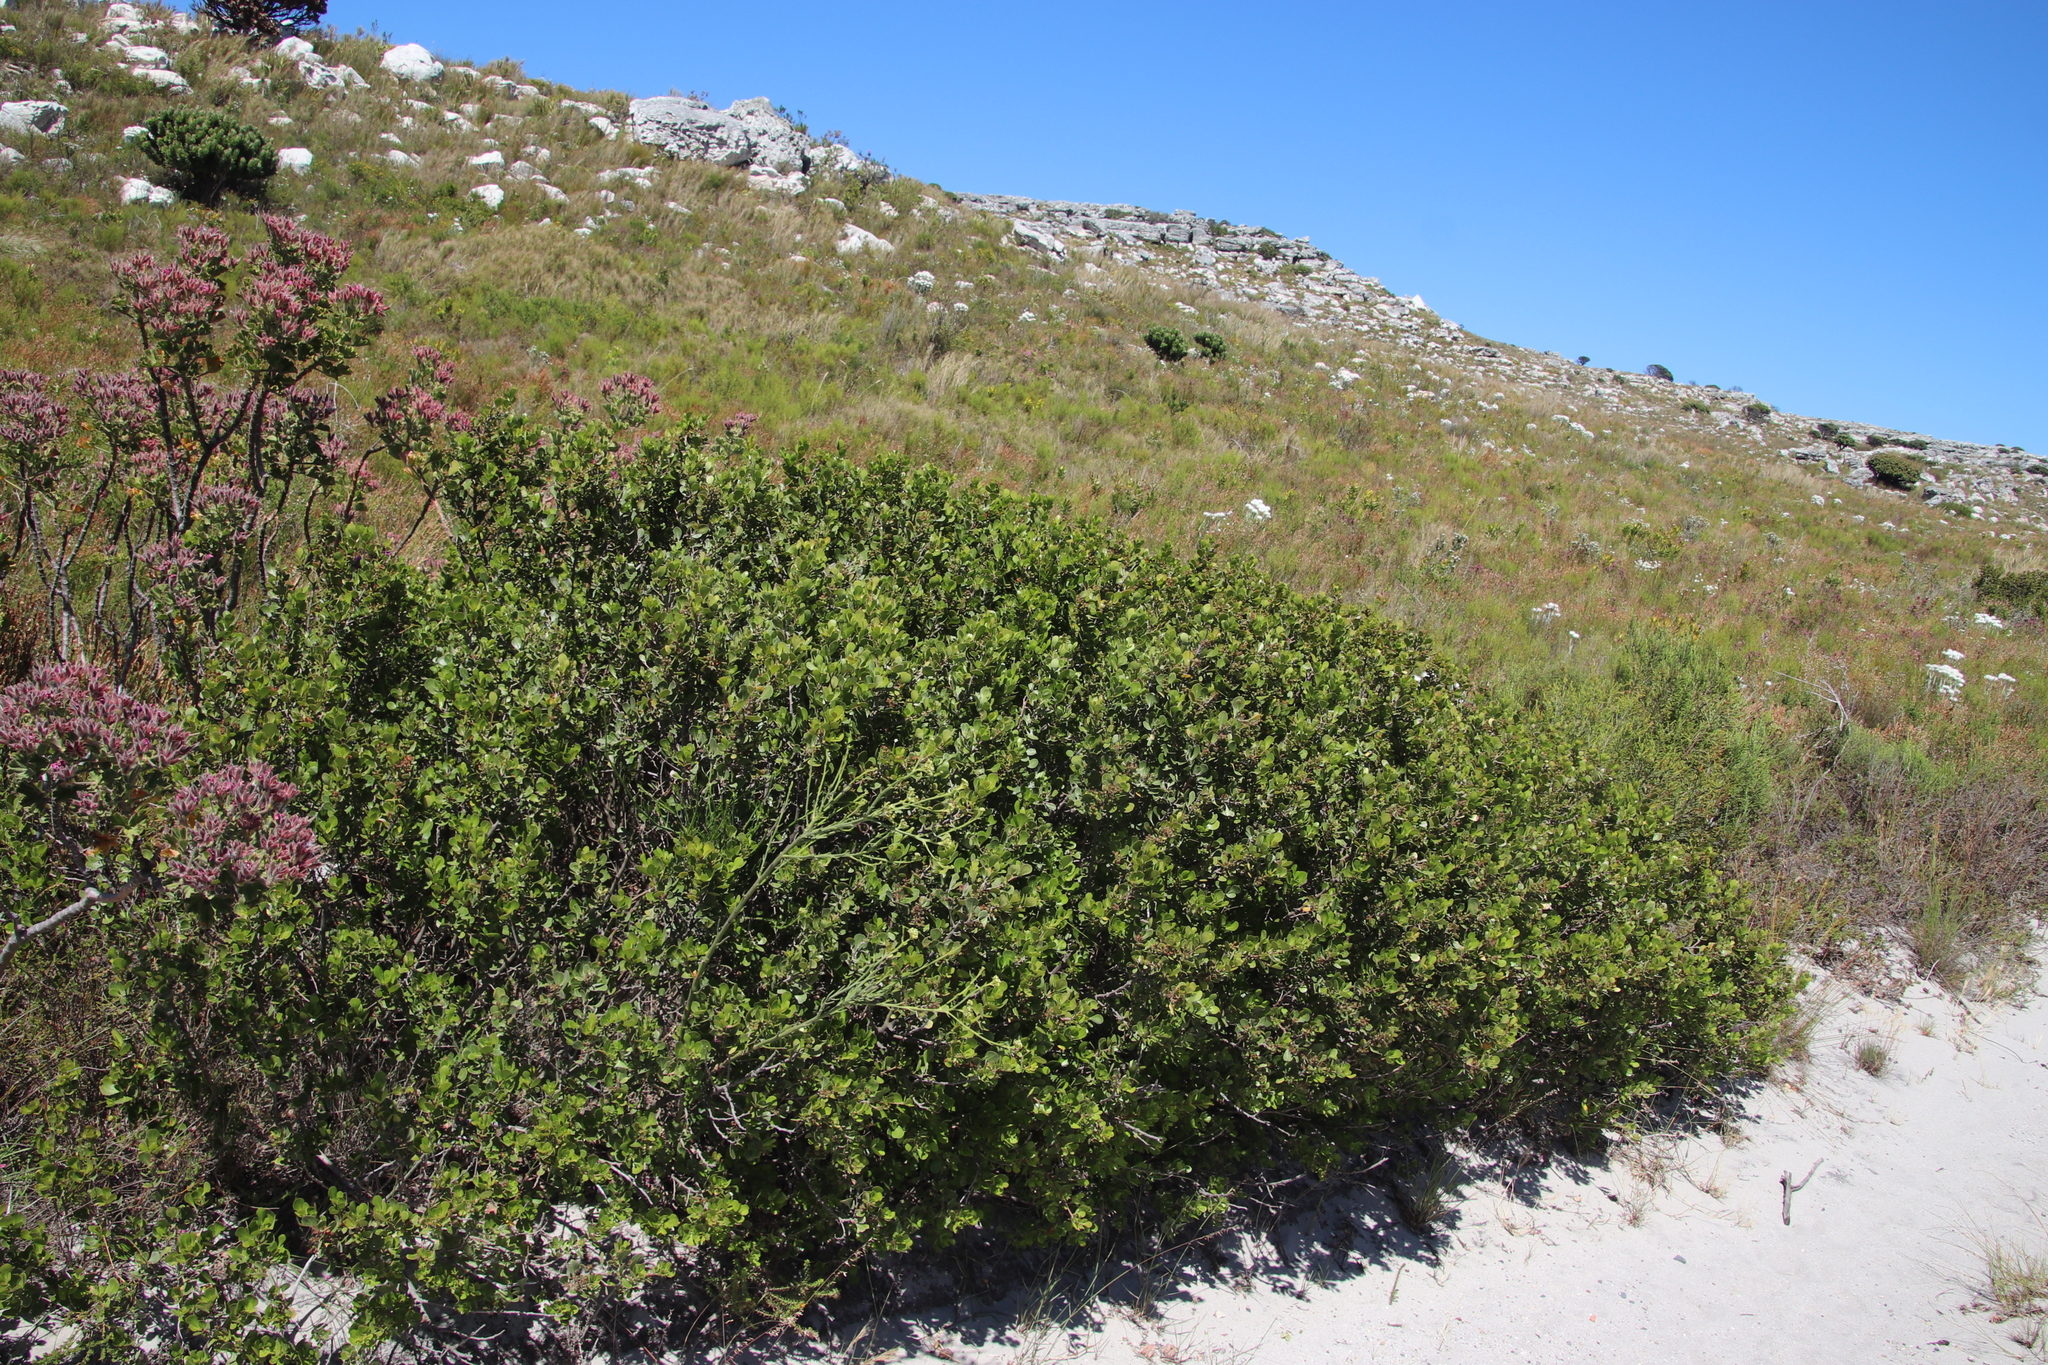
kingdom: Plantae
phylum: Tracheophyta
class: Magnoliopsida
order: Sapindales
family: Anacardiaceae
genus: Searsia
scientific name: Searsia lucida
